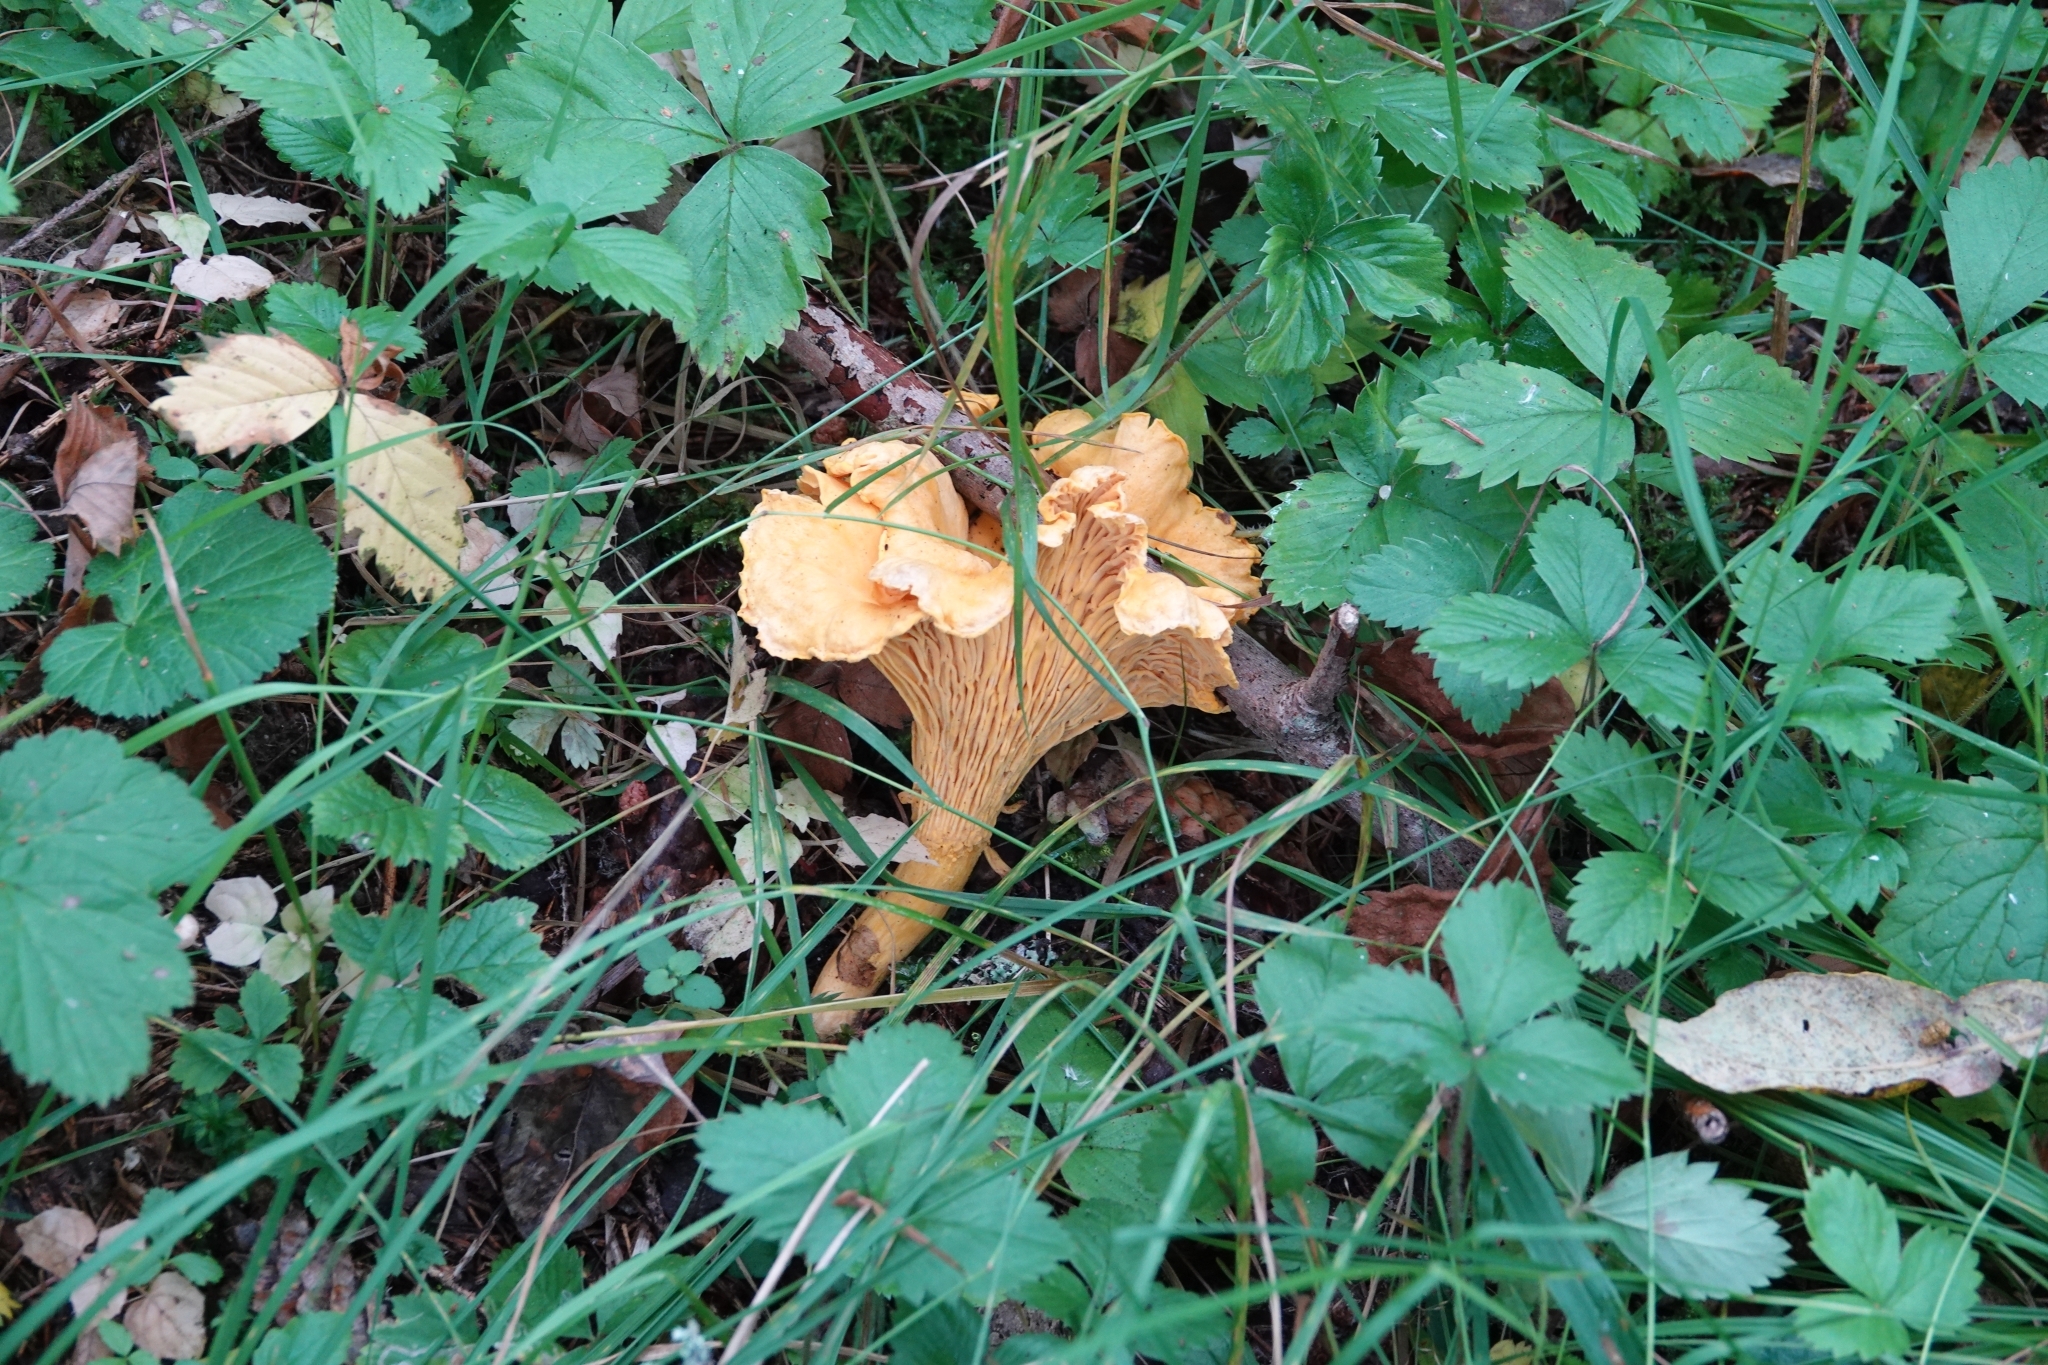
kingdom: Fungi
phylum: Basidiomycota
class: Agaricomycetes
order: Cantharellales
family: Hydnaceae
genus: Cantharellus
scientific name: Cantharellus cibarius
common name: Chanterelle
